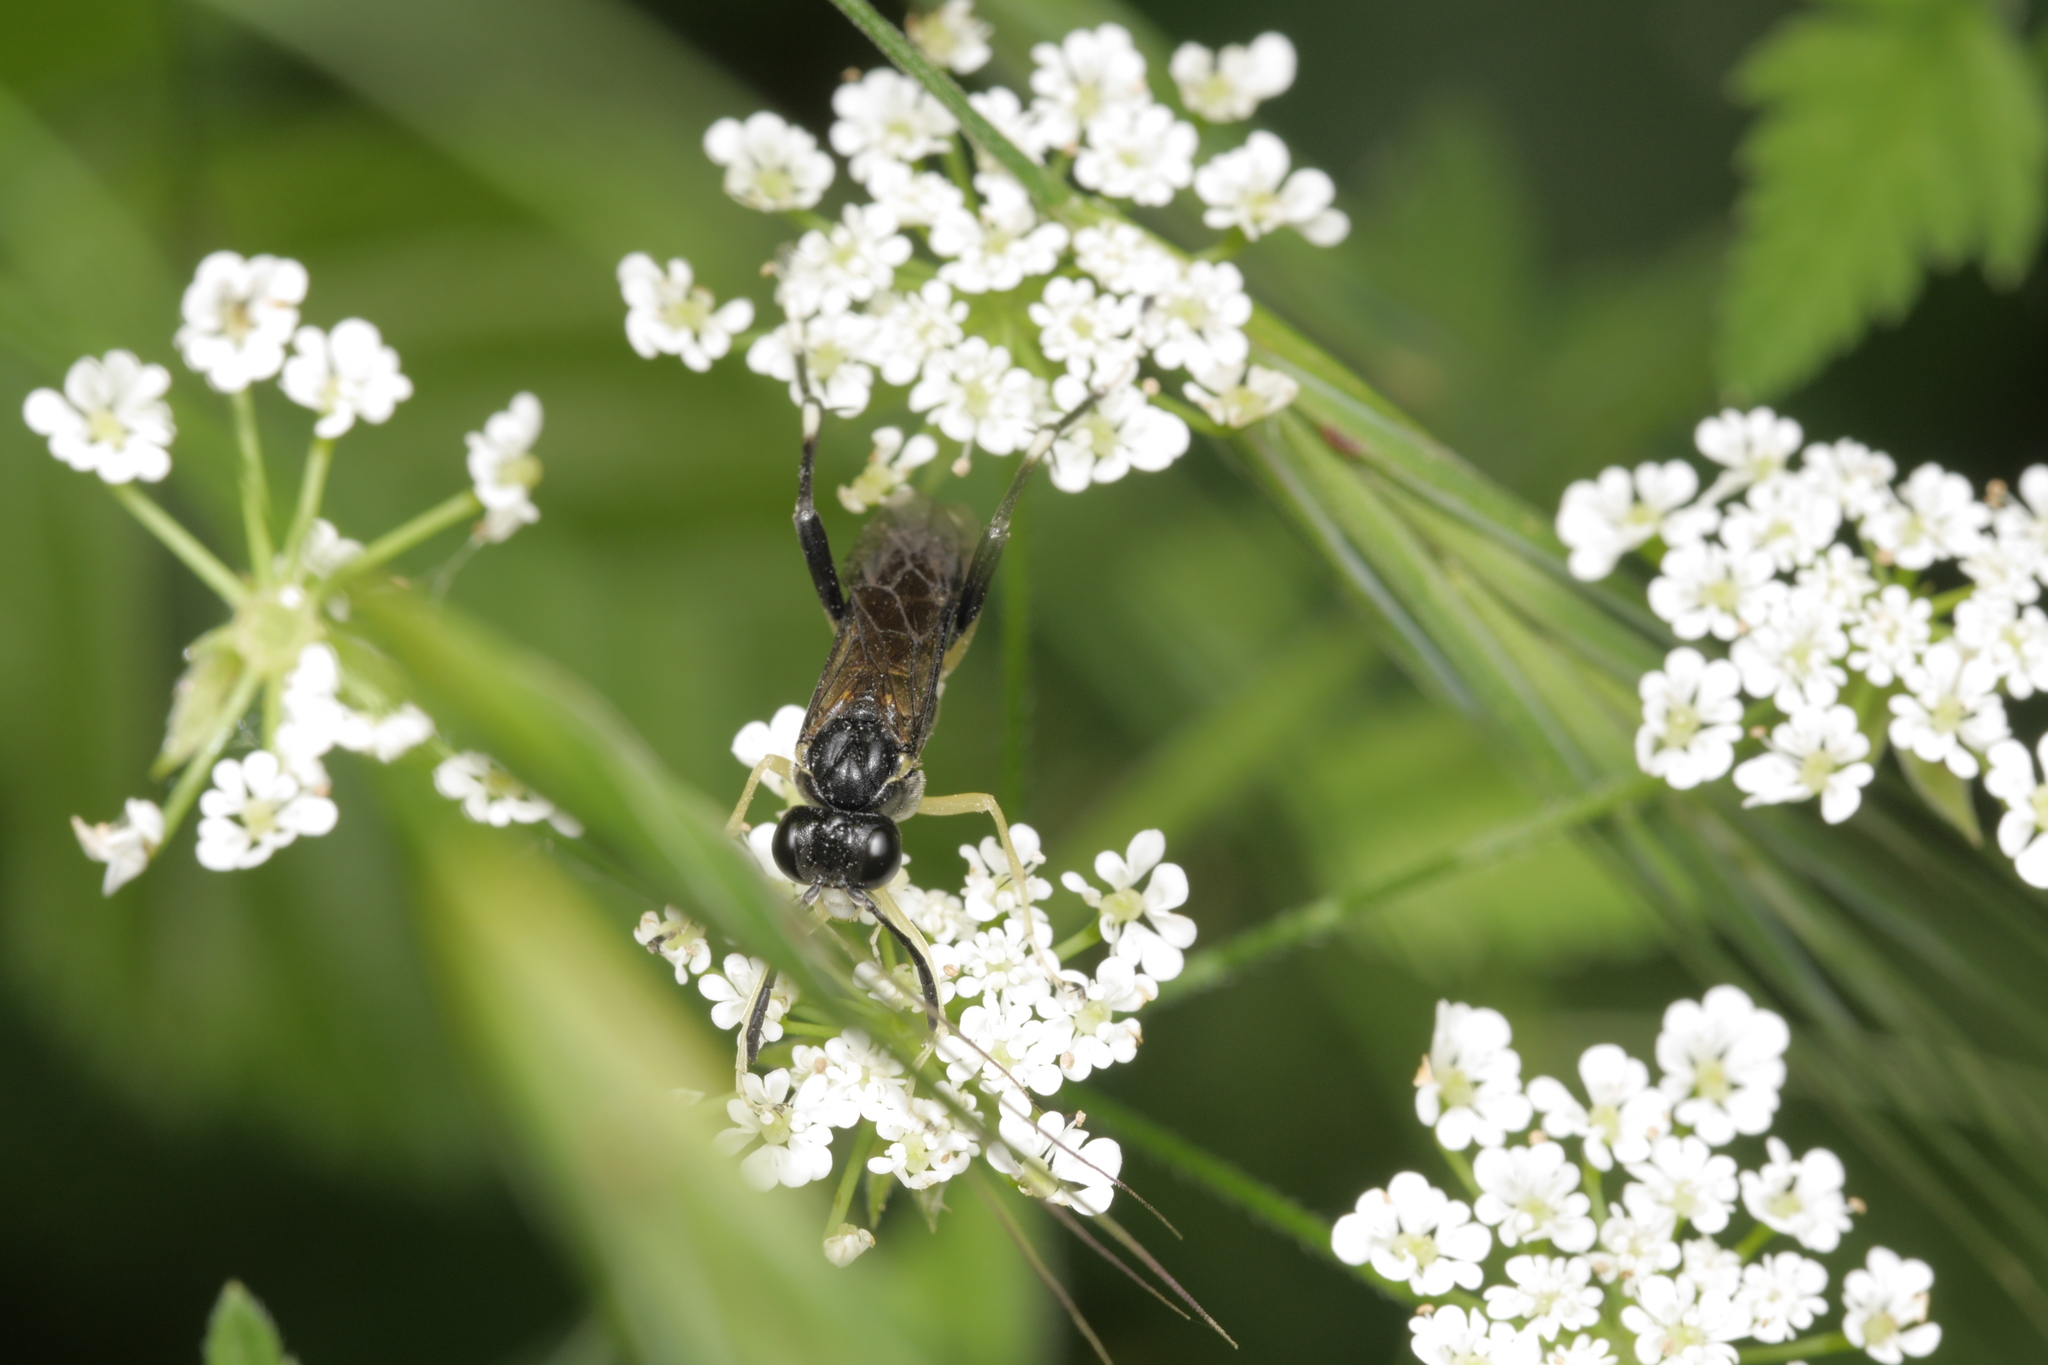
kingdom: Animalia
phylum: Arthropoda
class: Insecta
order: Hymenoptera
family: Tenthredinidae
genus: Macrophya
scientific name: Macrophya montana
